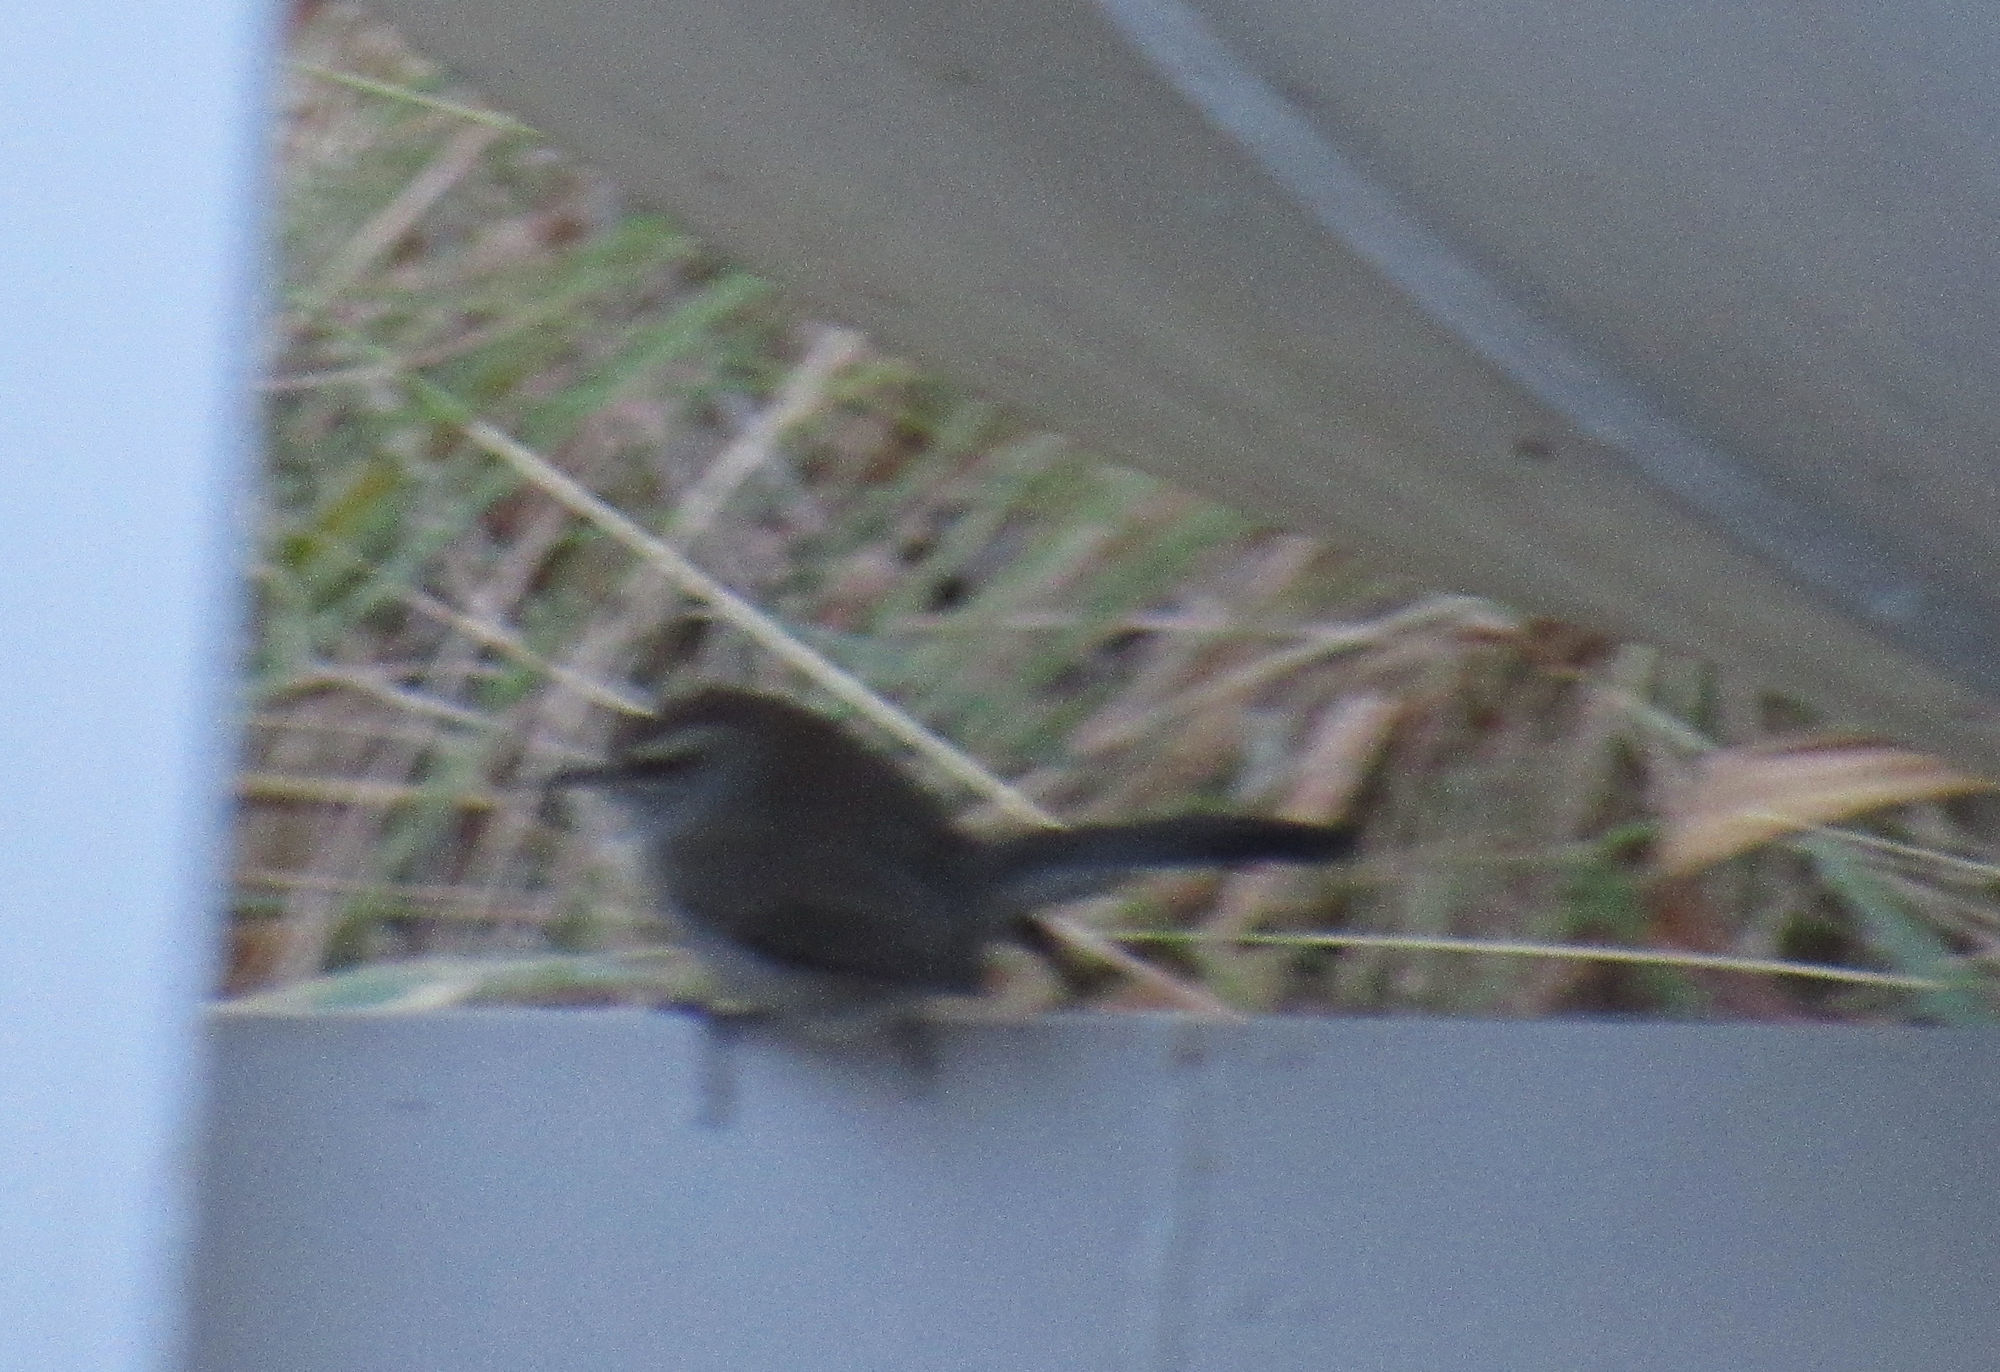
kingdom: Animalia
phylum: Chordata
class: Aves
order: Passeriformes
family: Troglodytidae
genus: Thryomanes
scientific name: Thryomanes bewickii
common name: Bewick's wren
